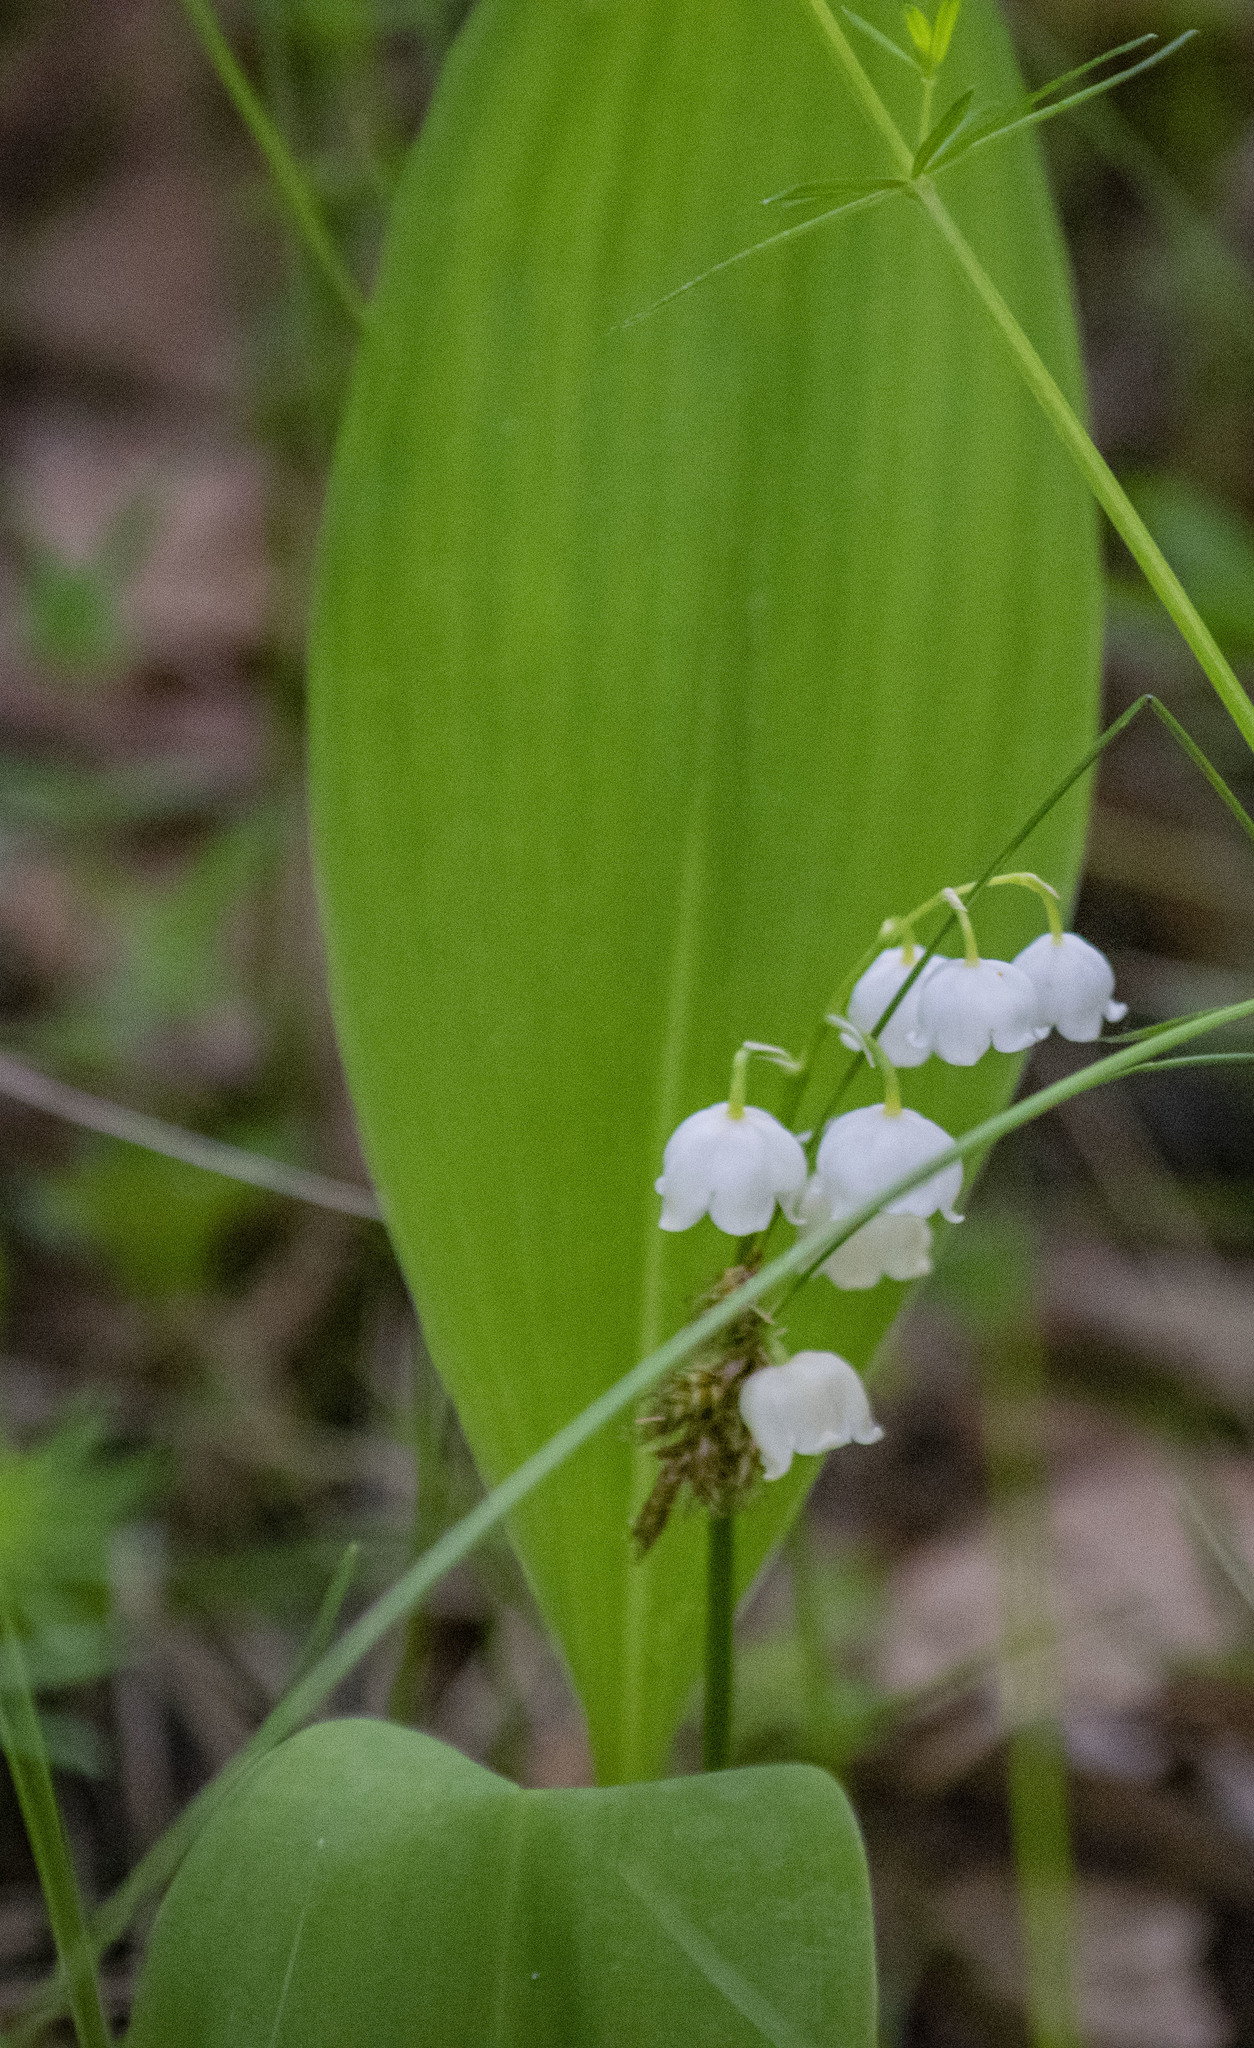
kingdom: Plantae
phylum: Tracheophyta
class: Liliopsida
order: Asparagales
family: Asparagaceae
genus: Convallaria
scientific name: Convallaria majalis
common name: Lily-of-the-valley
